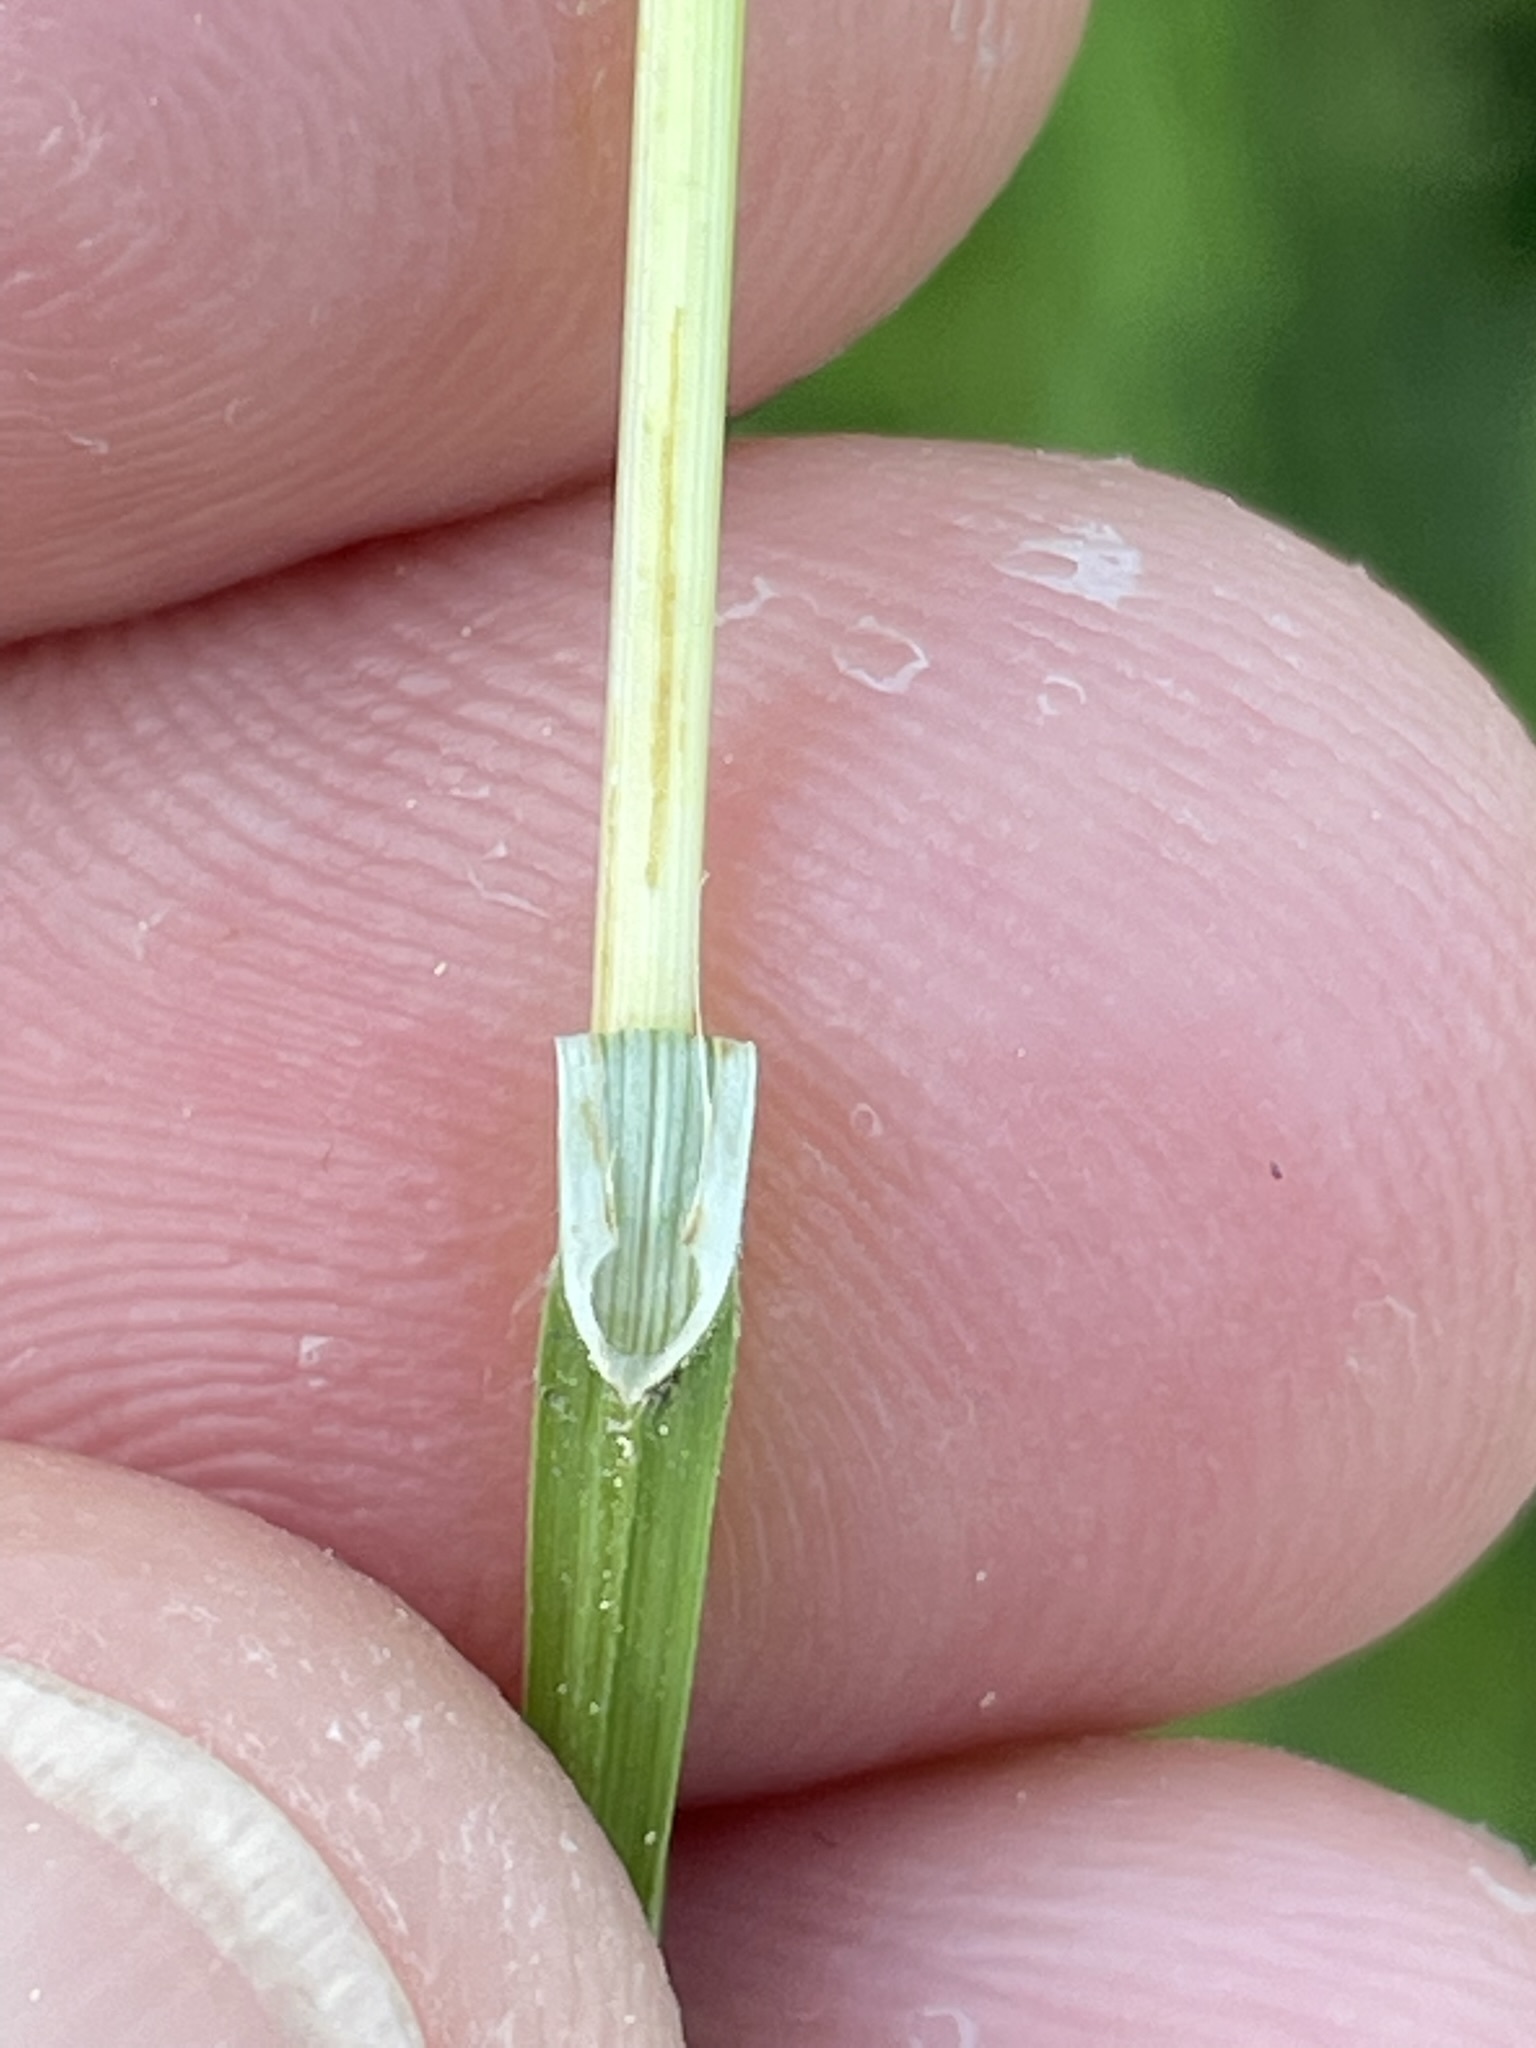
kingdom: Plantae
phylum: Tracheophyta
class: Liliopsida
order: Poales
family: Cyperaceae
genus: Carex
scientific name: Carex tomentosa
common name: Downy-fruited sedge
